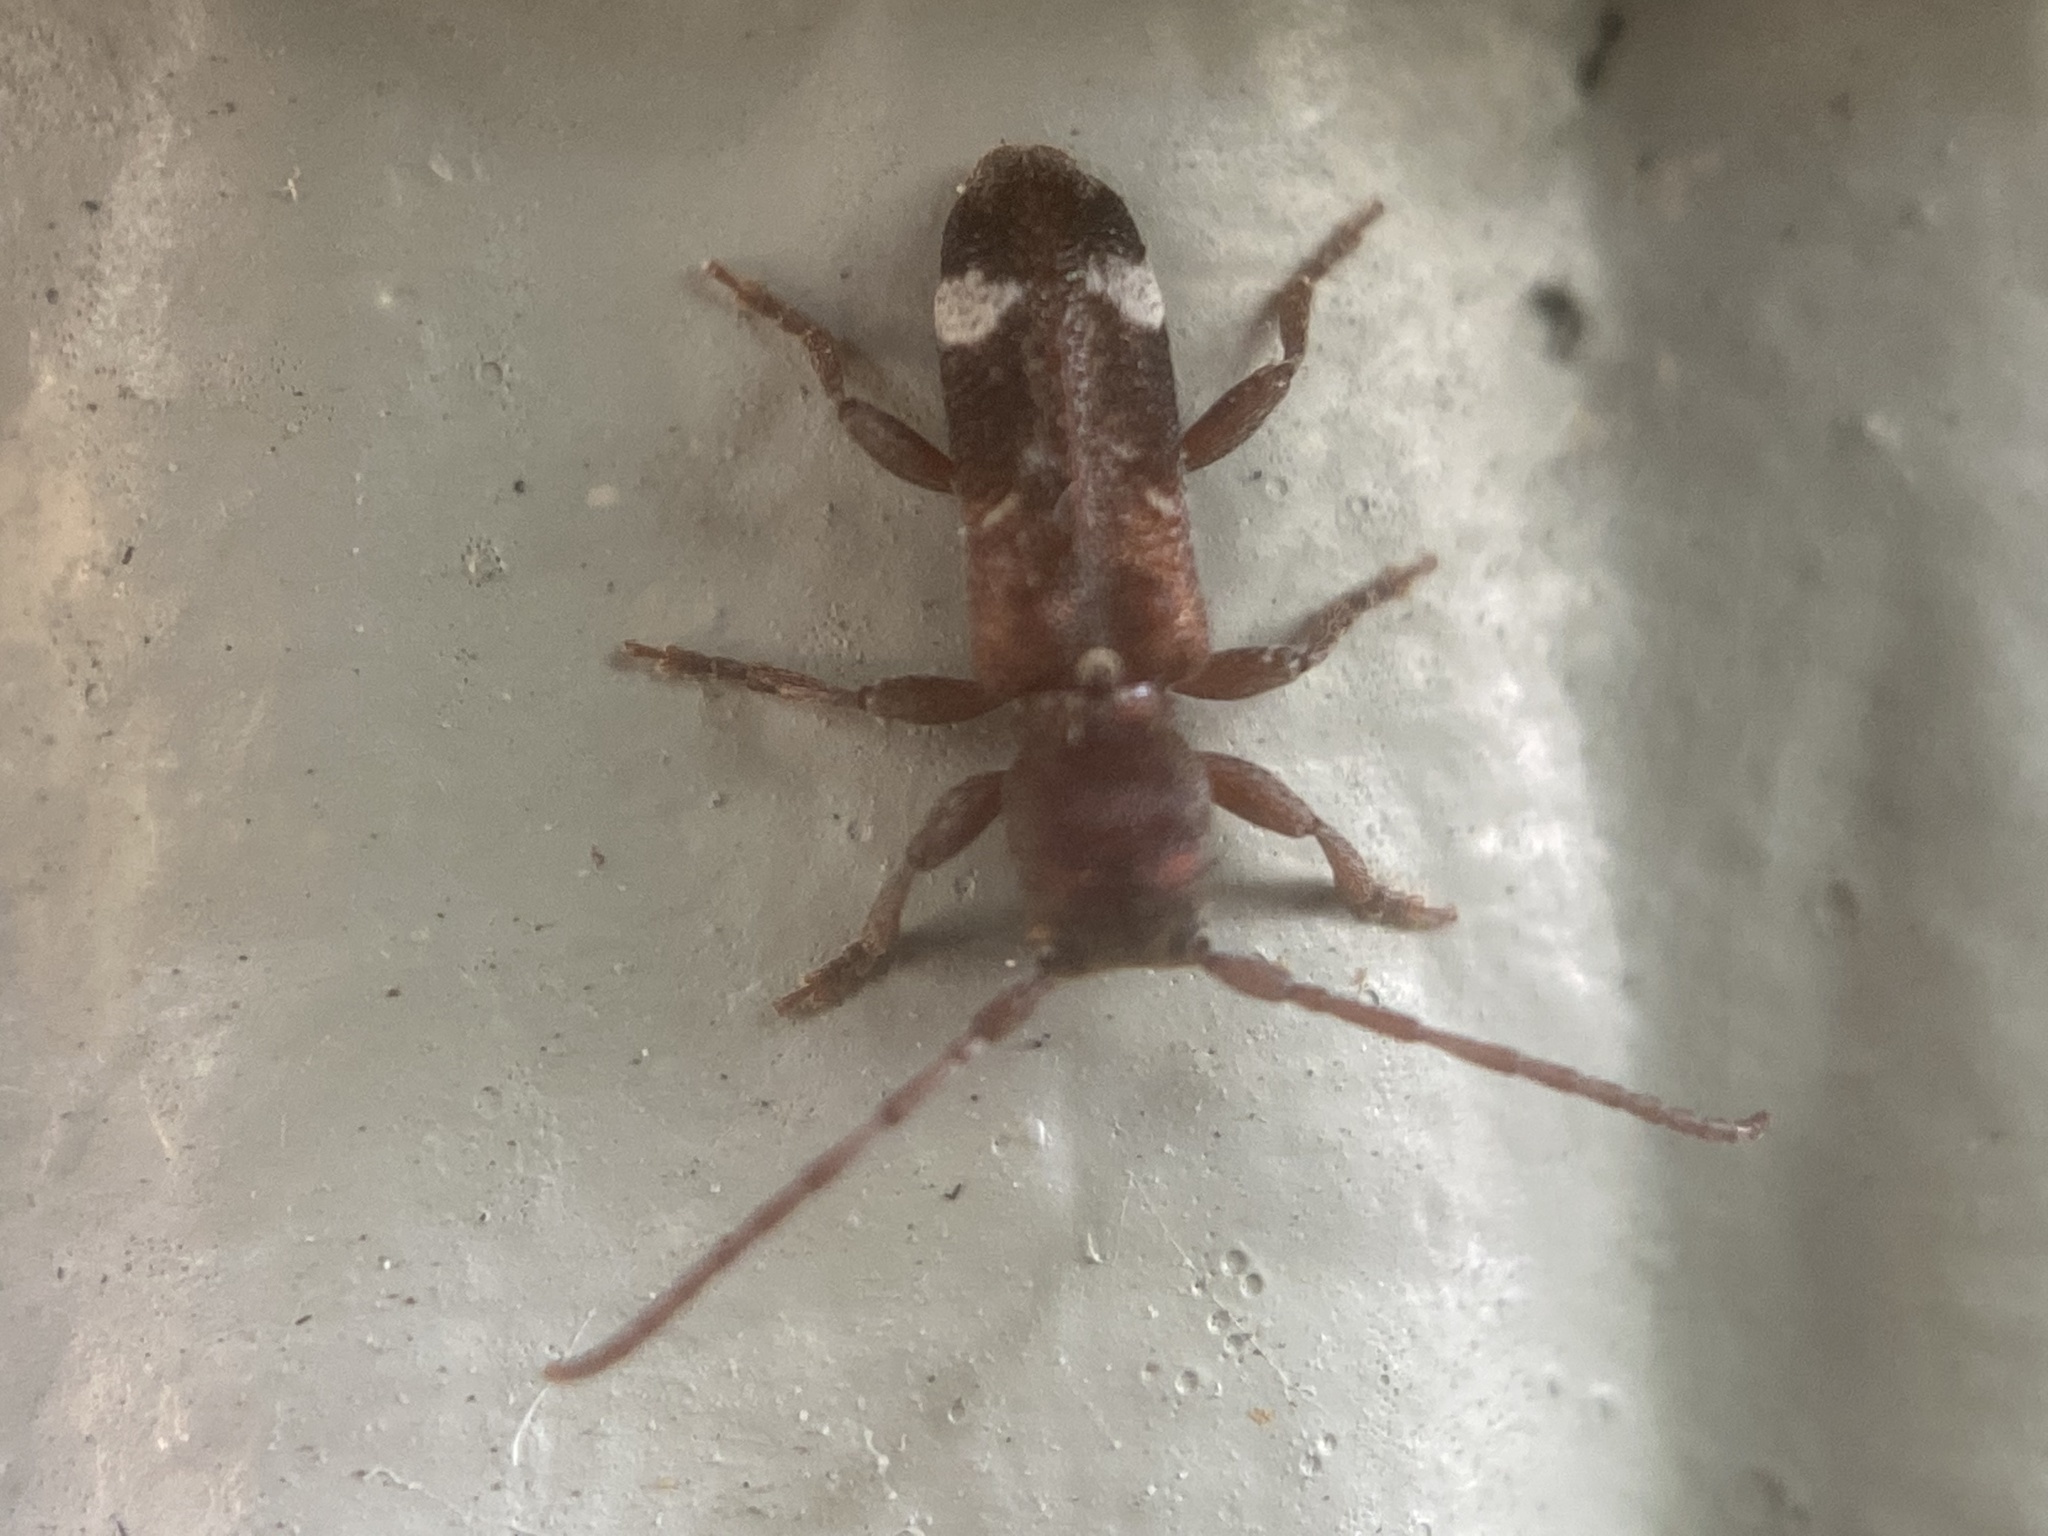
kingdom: Animalia
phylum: Arthropoda
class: Insecta
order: Coleoptera
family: Cerambycidae
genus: Psenocerus
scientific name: Psenocerus supernotatus
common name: Currant-tip borer
